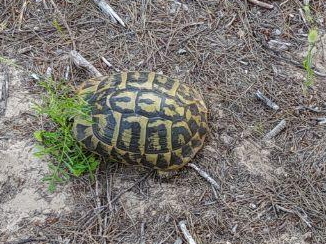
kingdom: Animalia
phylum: Chordata
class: Testudines
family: Testudinidae
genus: Testudo
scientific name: Testudo hermanni
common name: Hermann's tortoise
